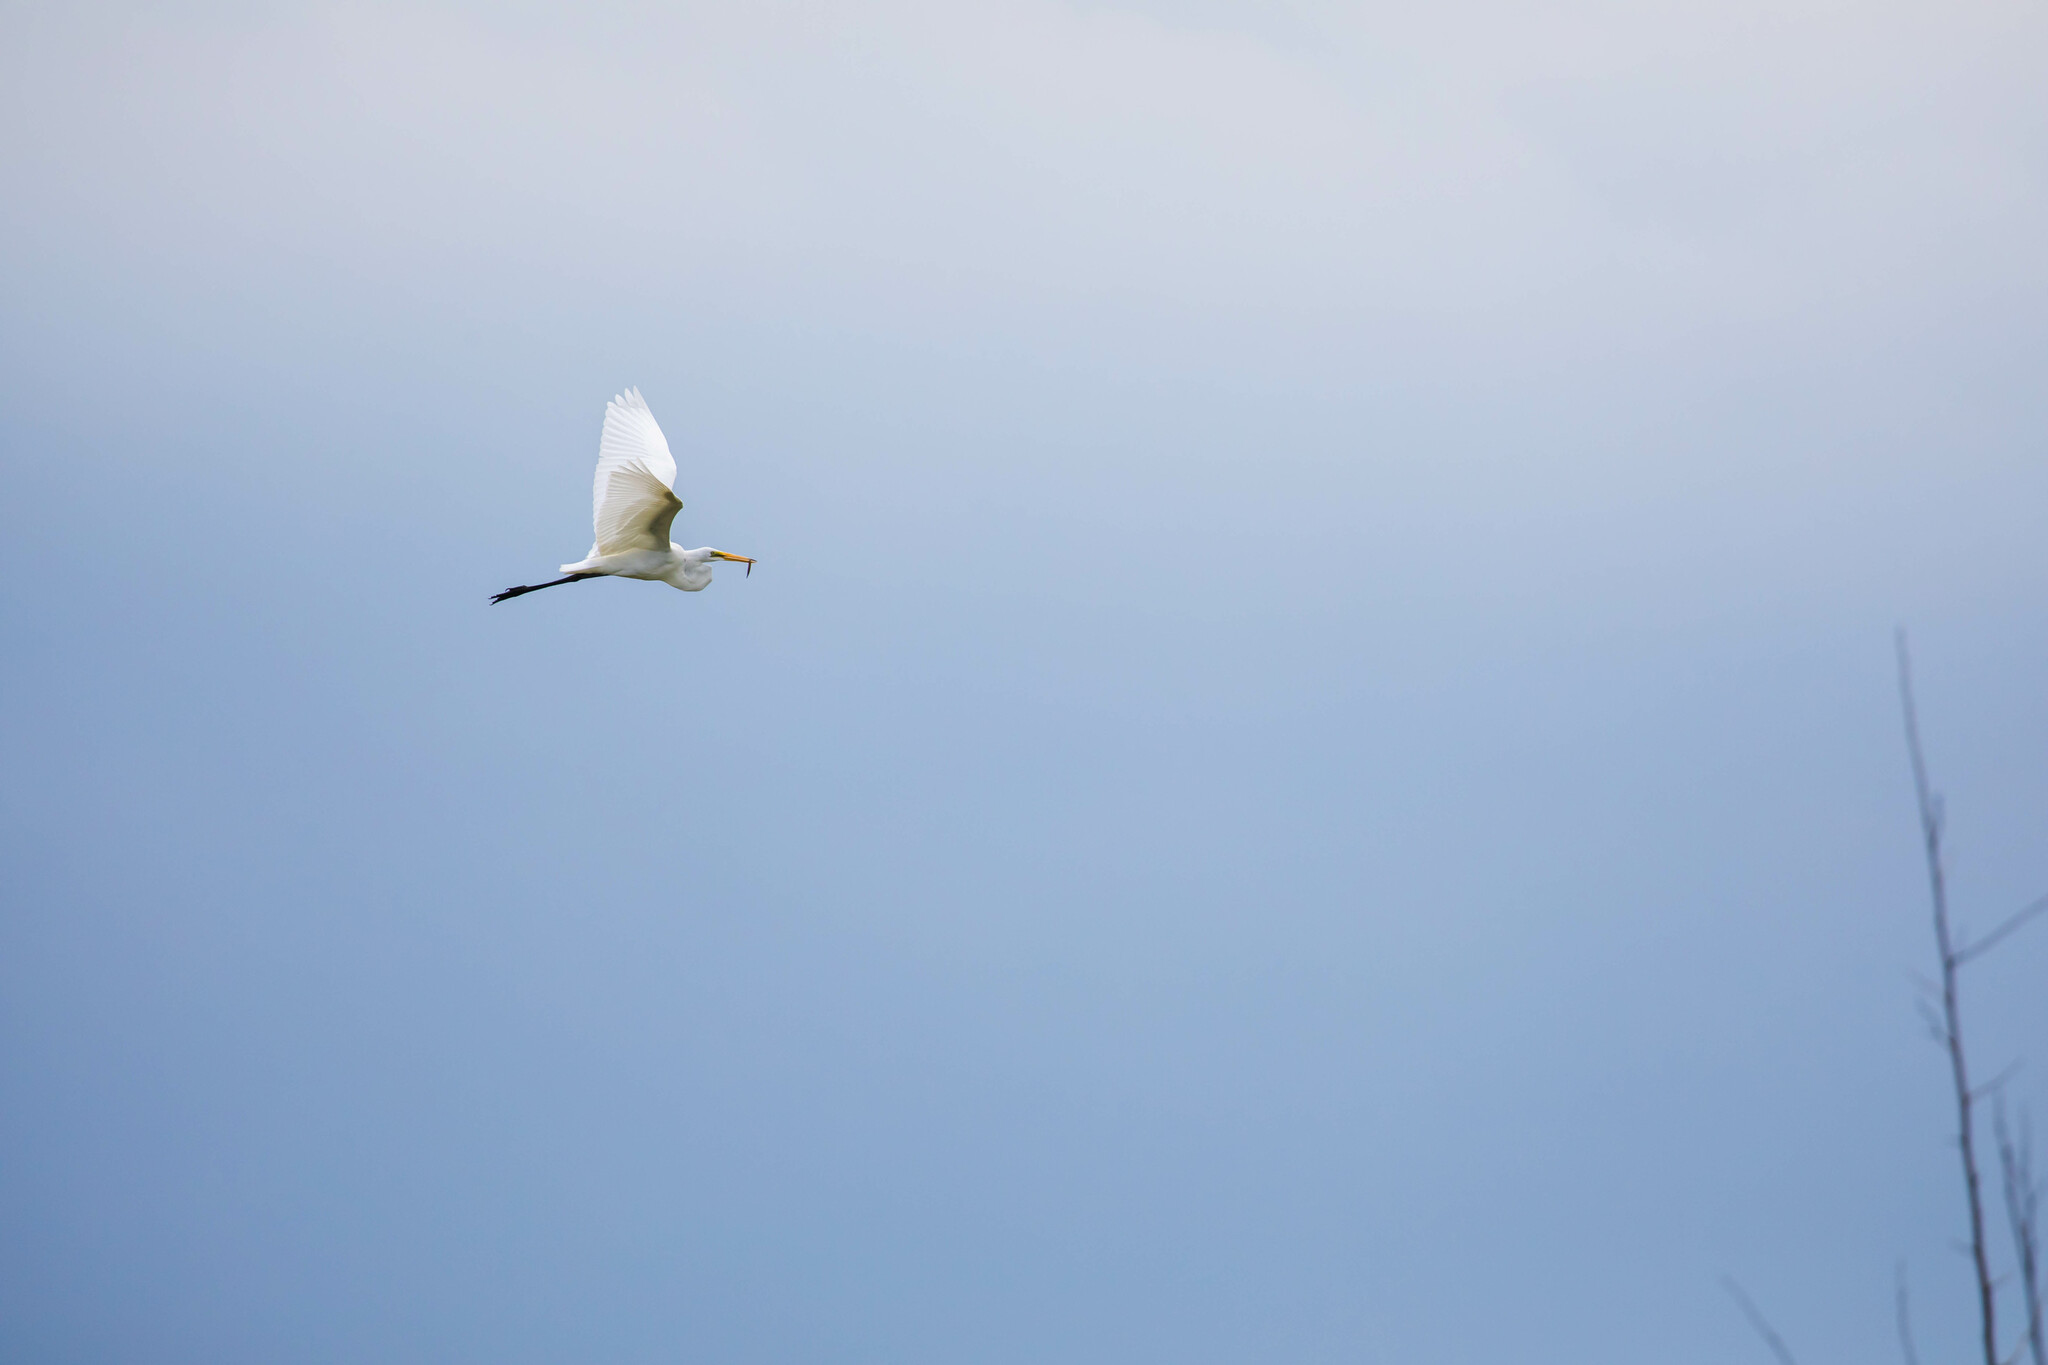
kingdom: Animalia
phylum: Chordata
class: Aves
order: Pelecaniformes
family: Ardeidae
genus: Ardea
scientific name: Ardea alba
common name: Great egret
